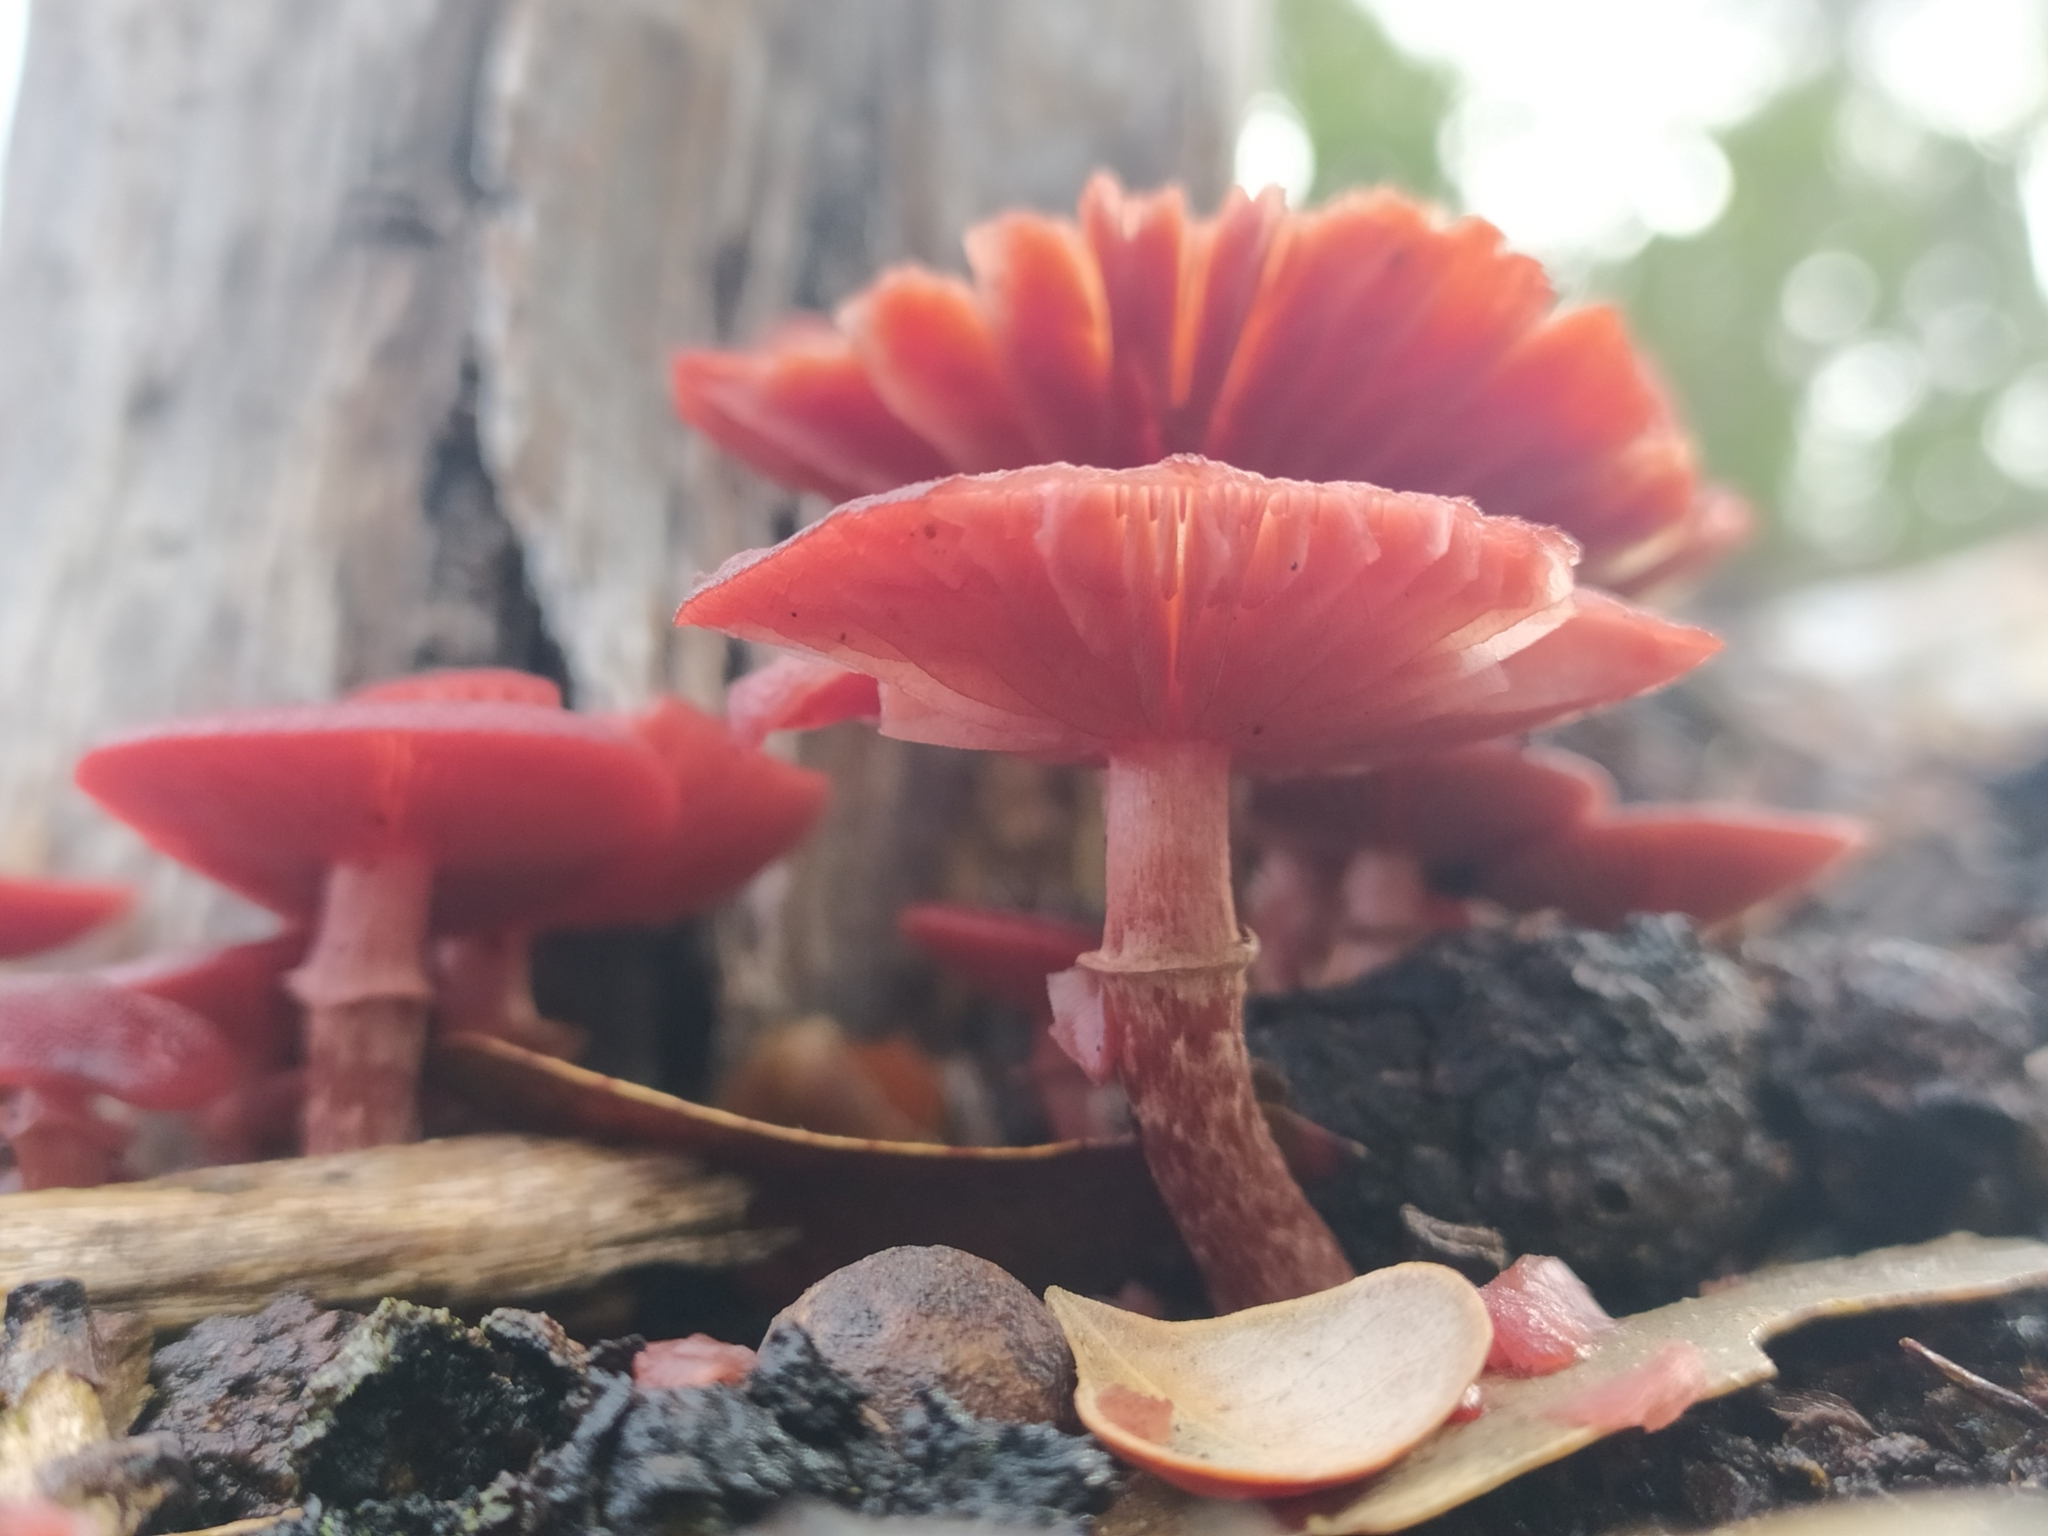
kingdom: Fungi
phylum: Basidiomycota
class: Agaricomycetes
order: Agaricales
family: Tubariaceae
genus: Tubaria
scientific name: Tubaria rufofulva
